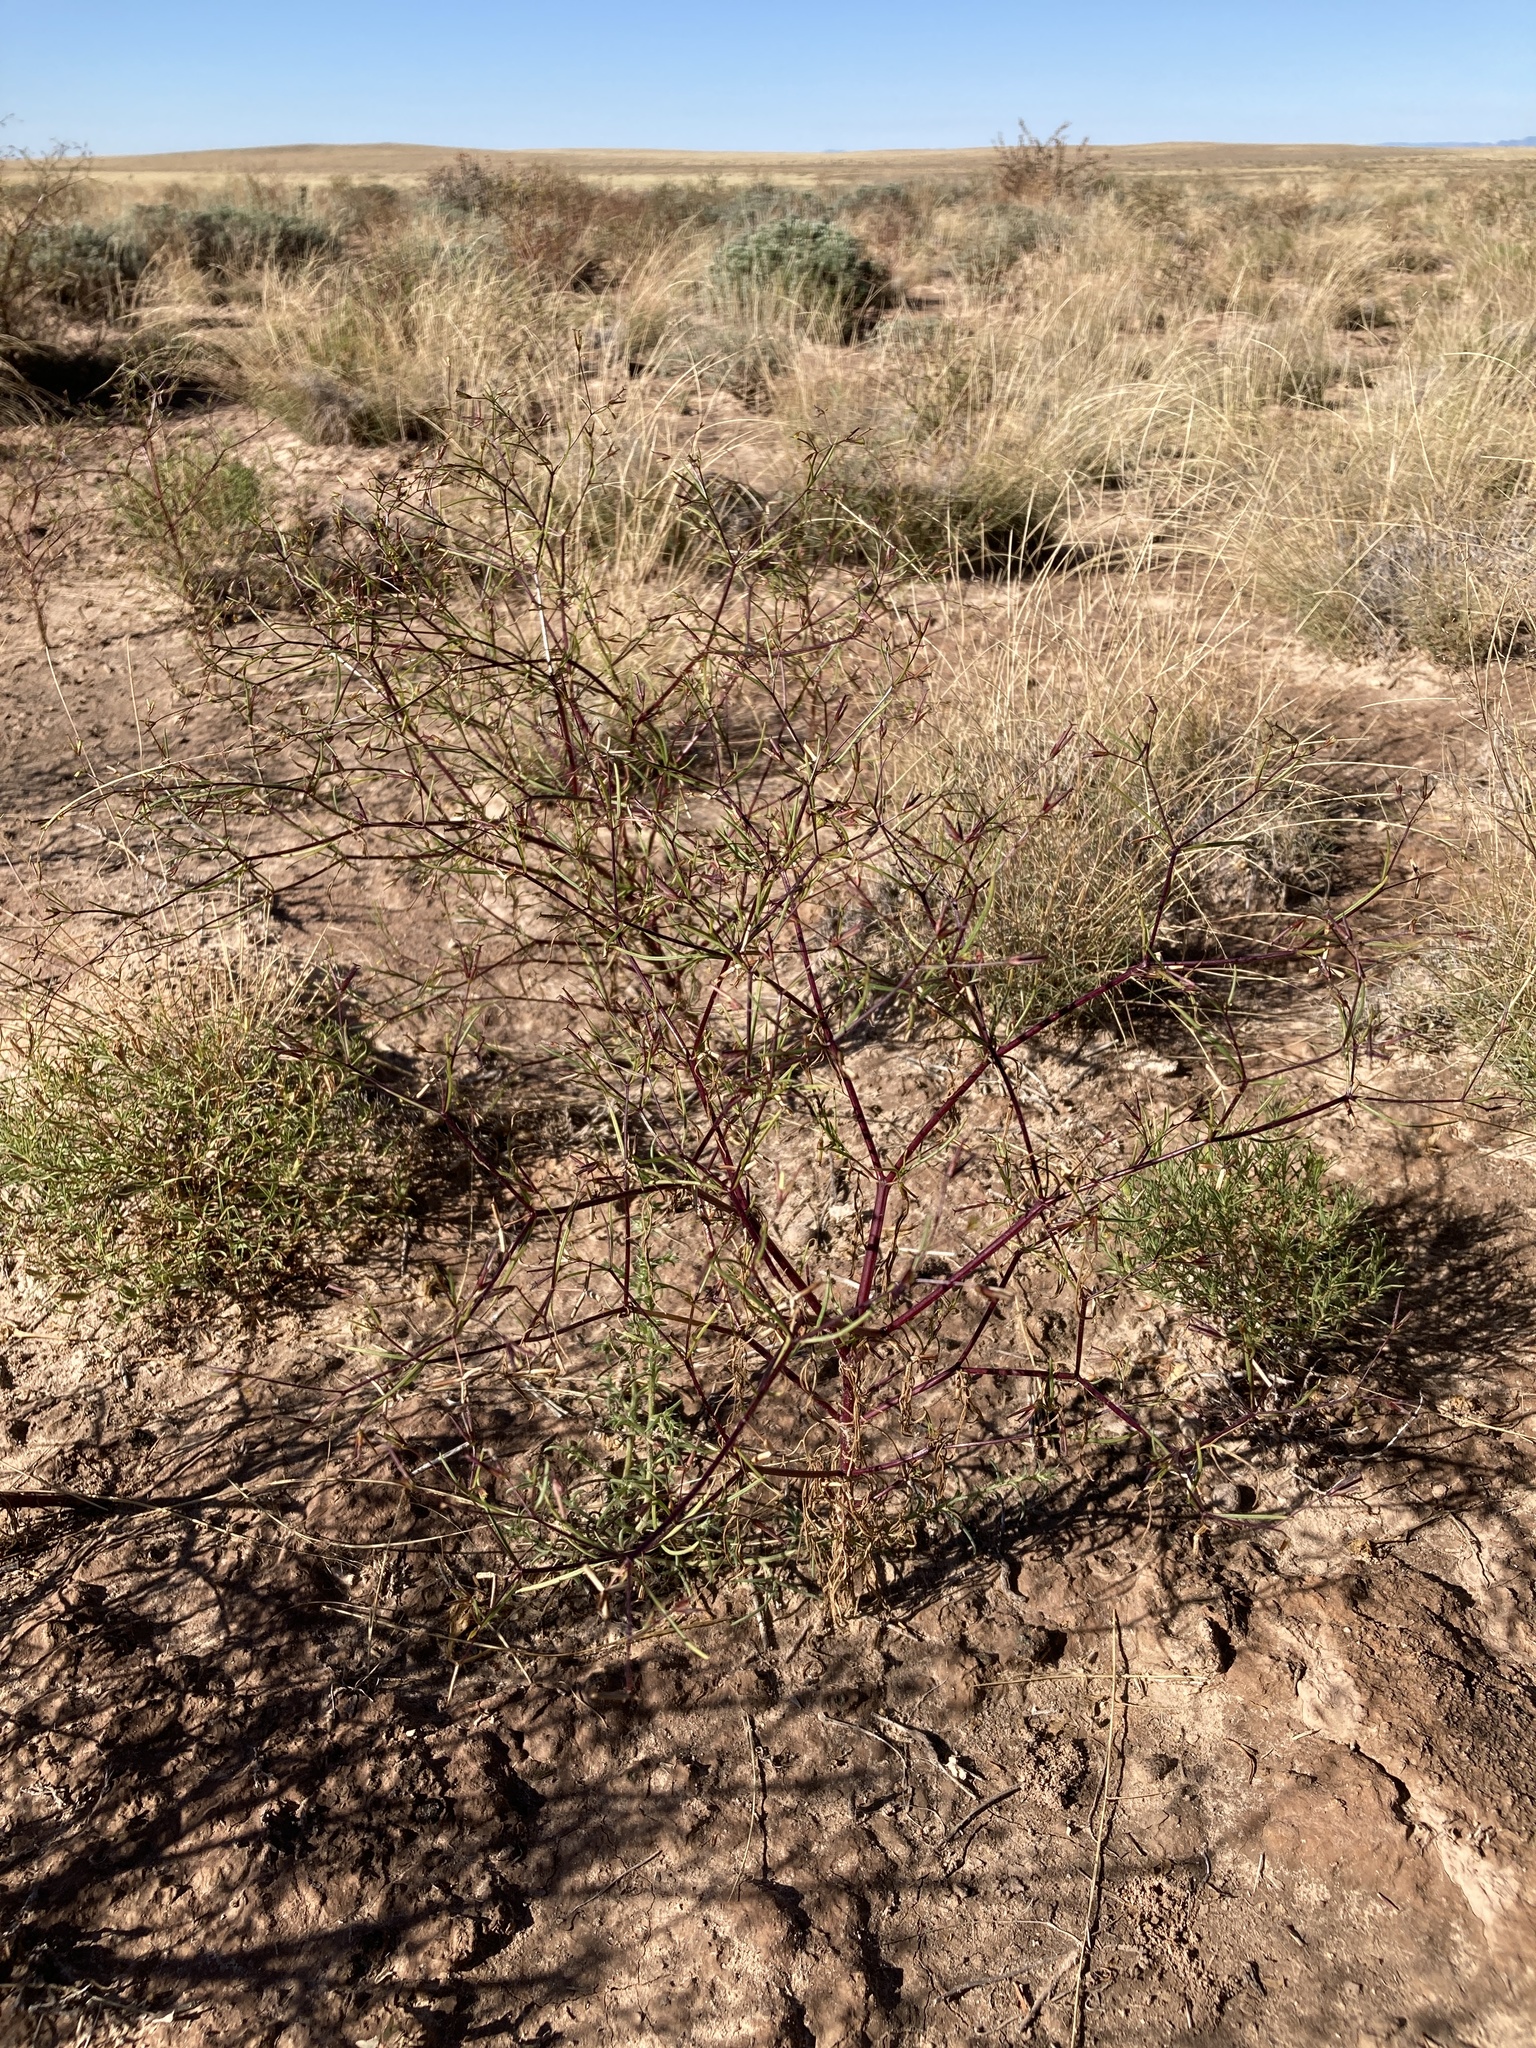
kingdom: Plantae
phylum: Tracheophyta
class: Magnoliopsida
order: Asterales
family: Asteraceae
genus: Dicranocarpus
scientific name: Dicranocarpus parviflorus
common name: Pitchfork
